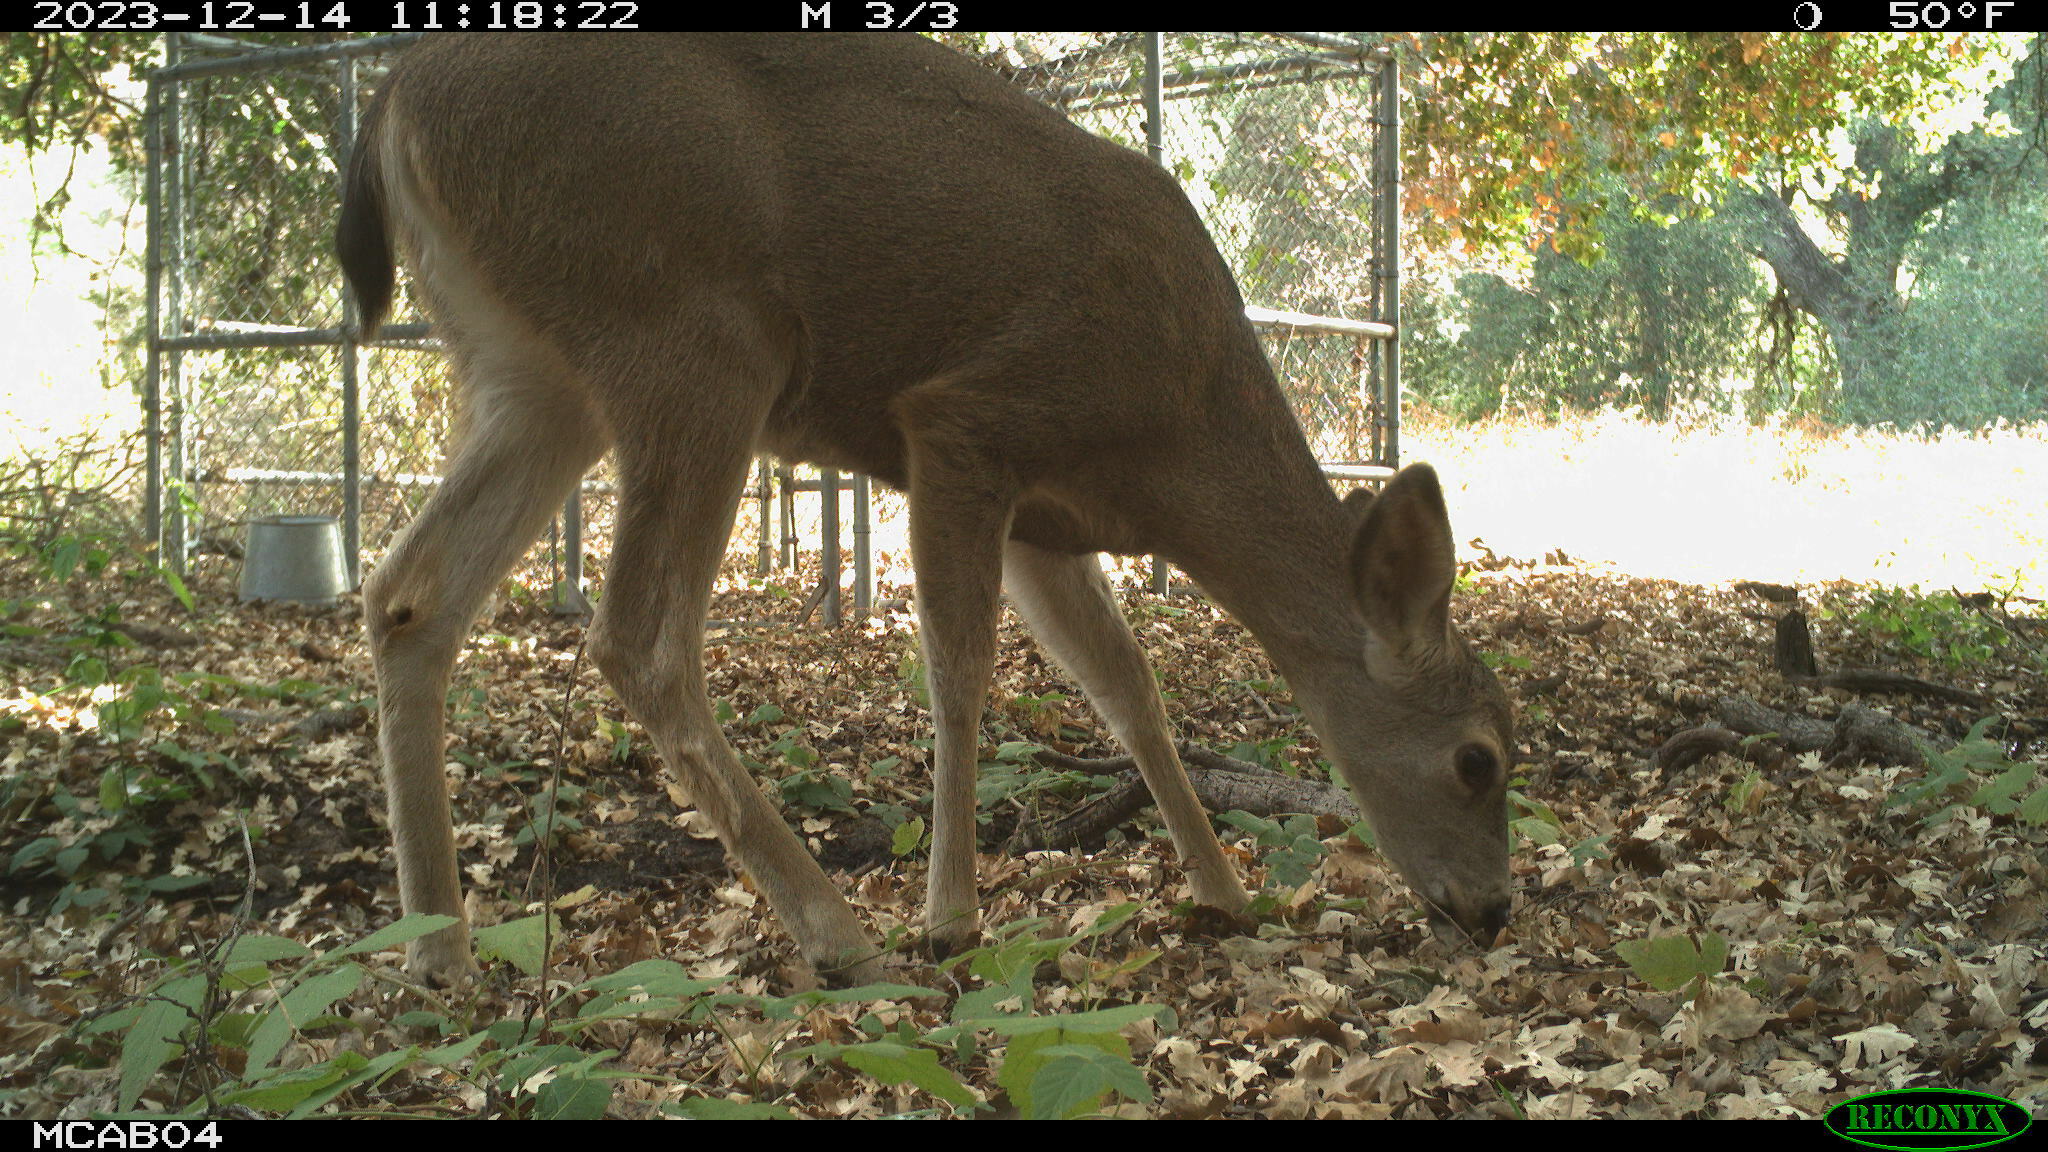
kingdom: Animalia
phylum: Chordata
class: Mammalia
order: Artiodactyla
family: Cervidae
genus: Odocoileus
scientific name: Odocoileus hemionus
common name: Mule deer
